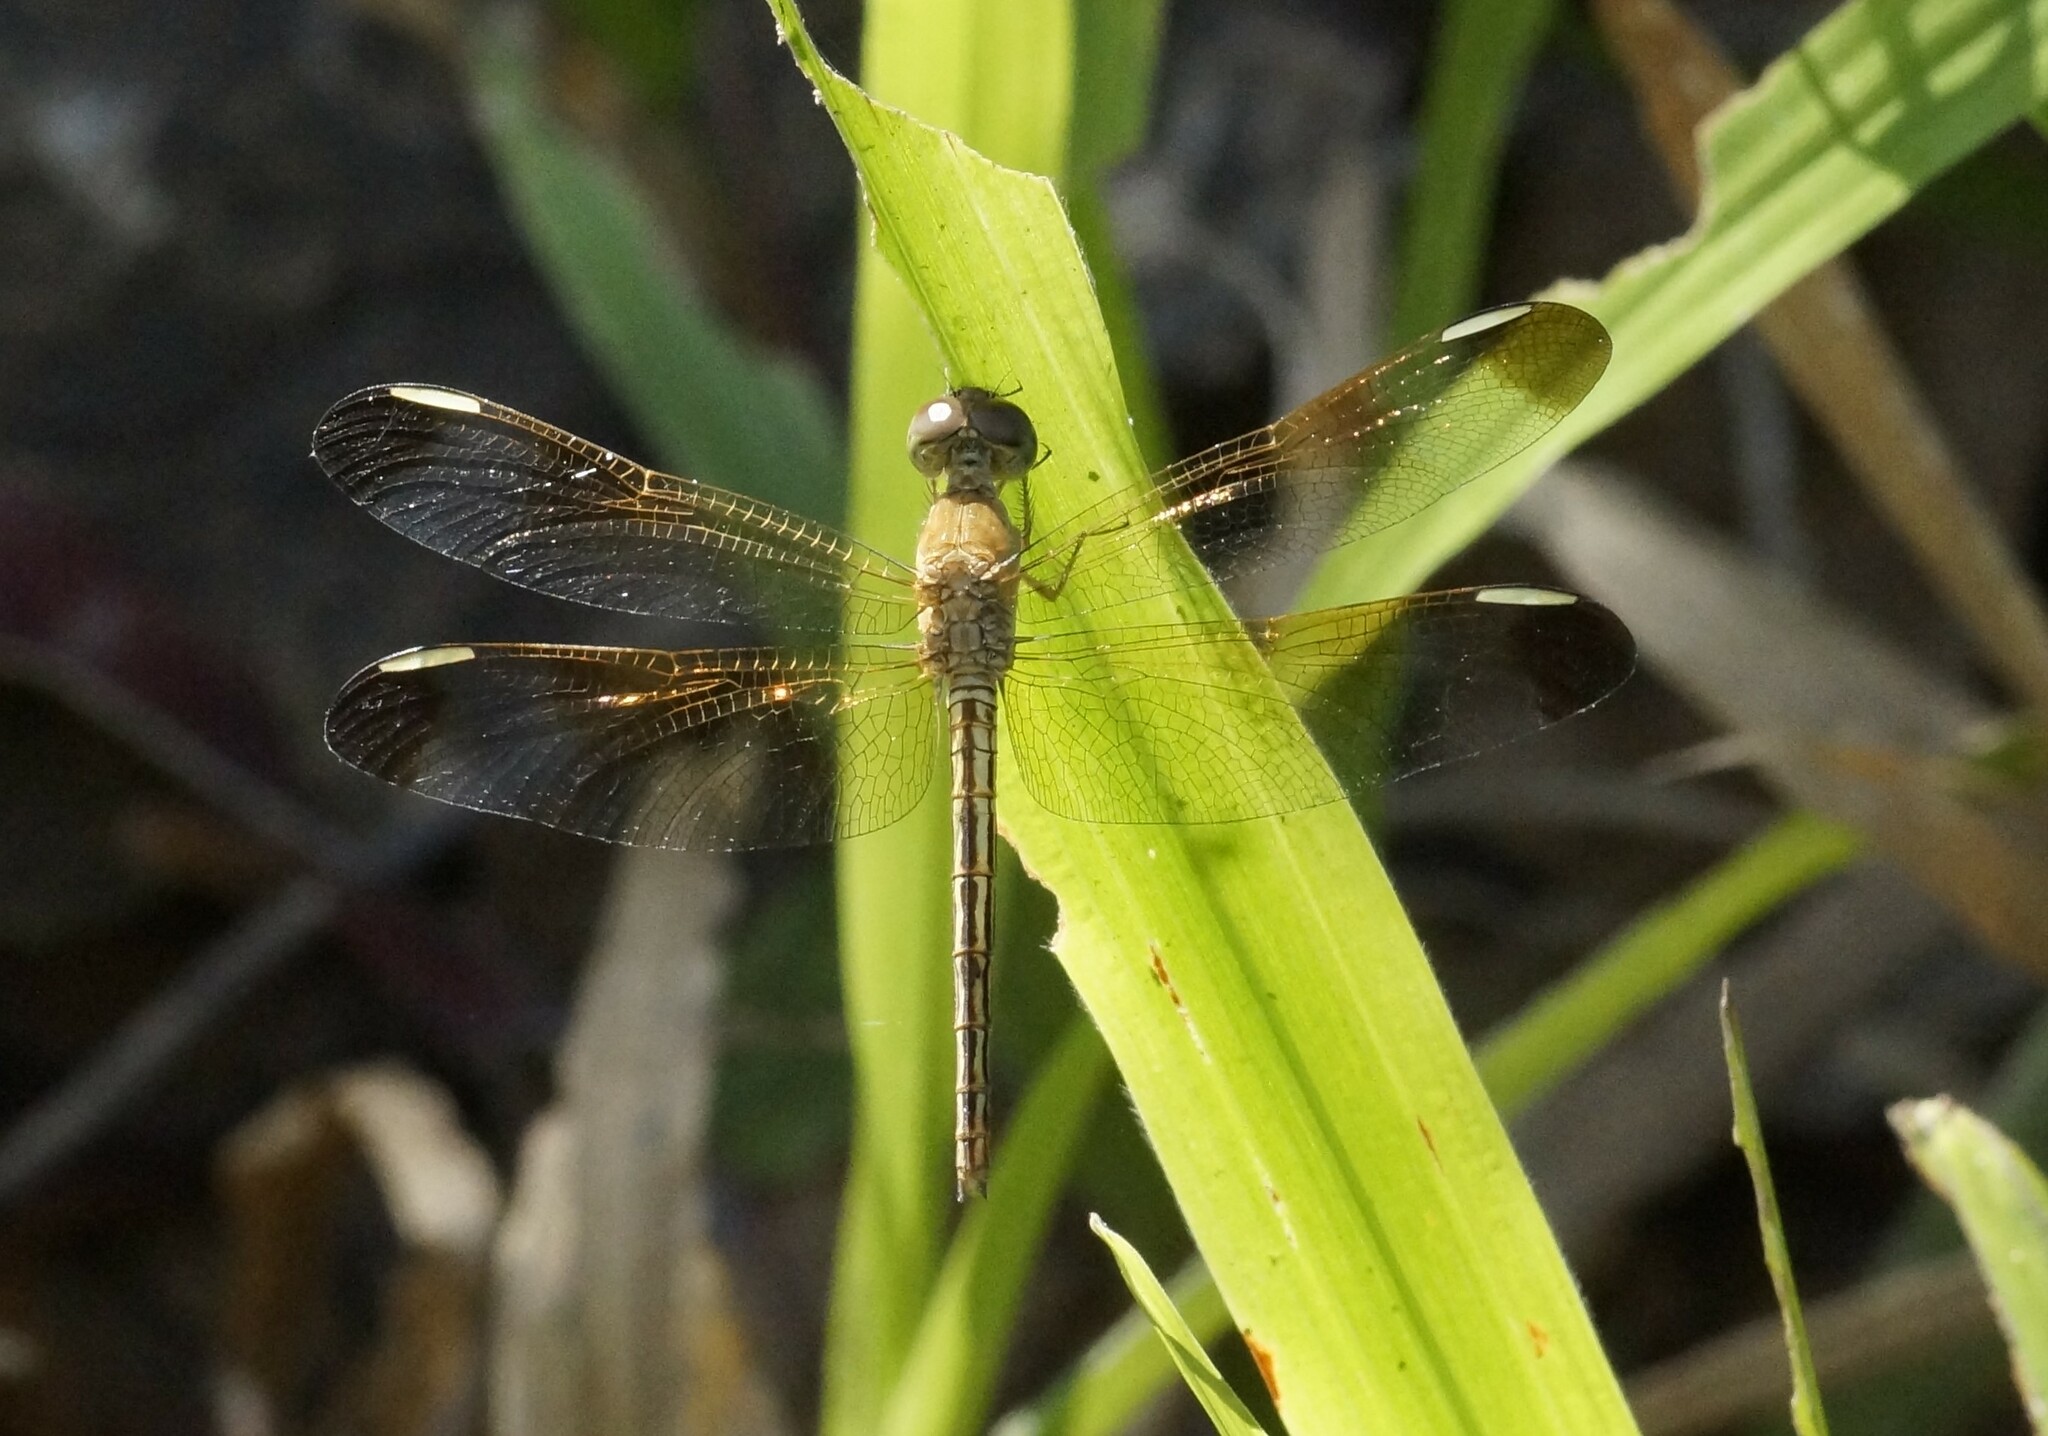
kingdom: Animalia
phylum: Arthropoda
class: Insecta
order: Odonata
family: Libellulidae
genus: Neurothemis
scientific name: Neurothemis stigmatizans
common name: Painted grasshawk
